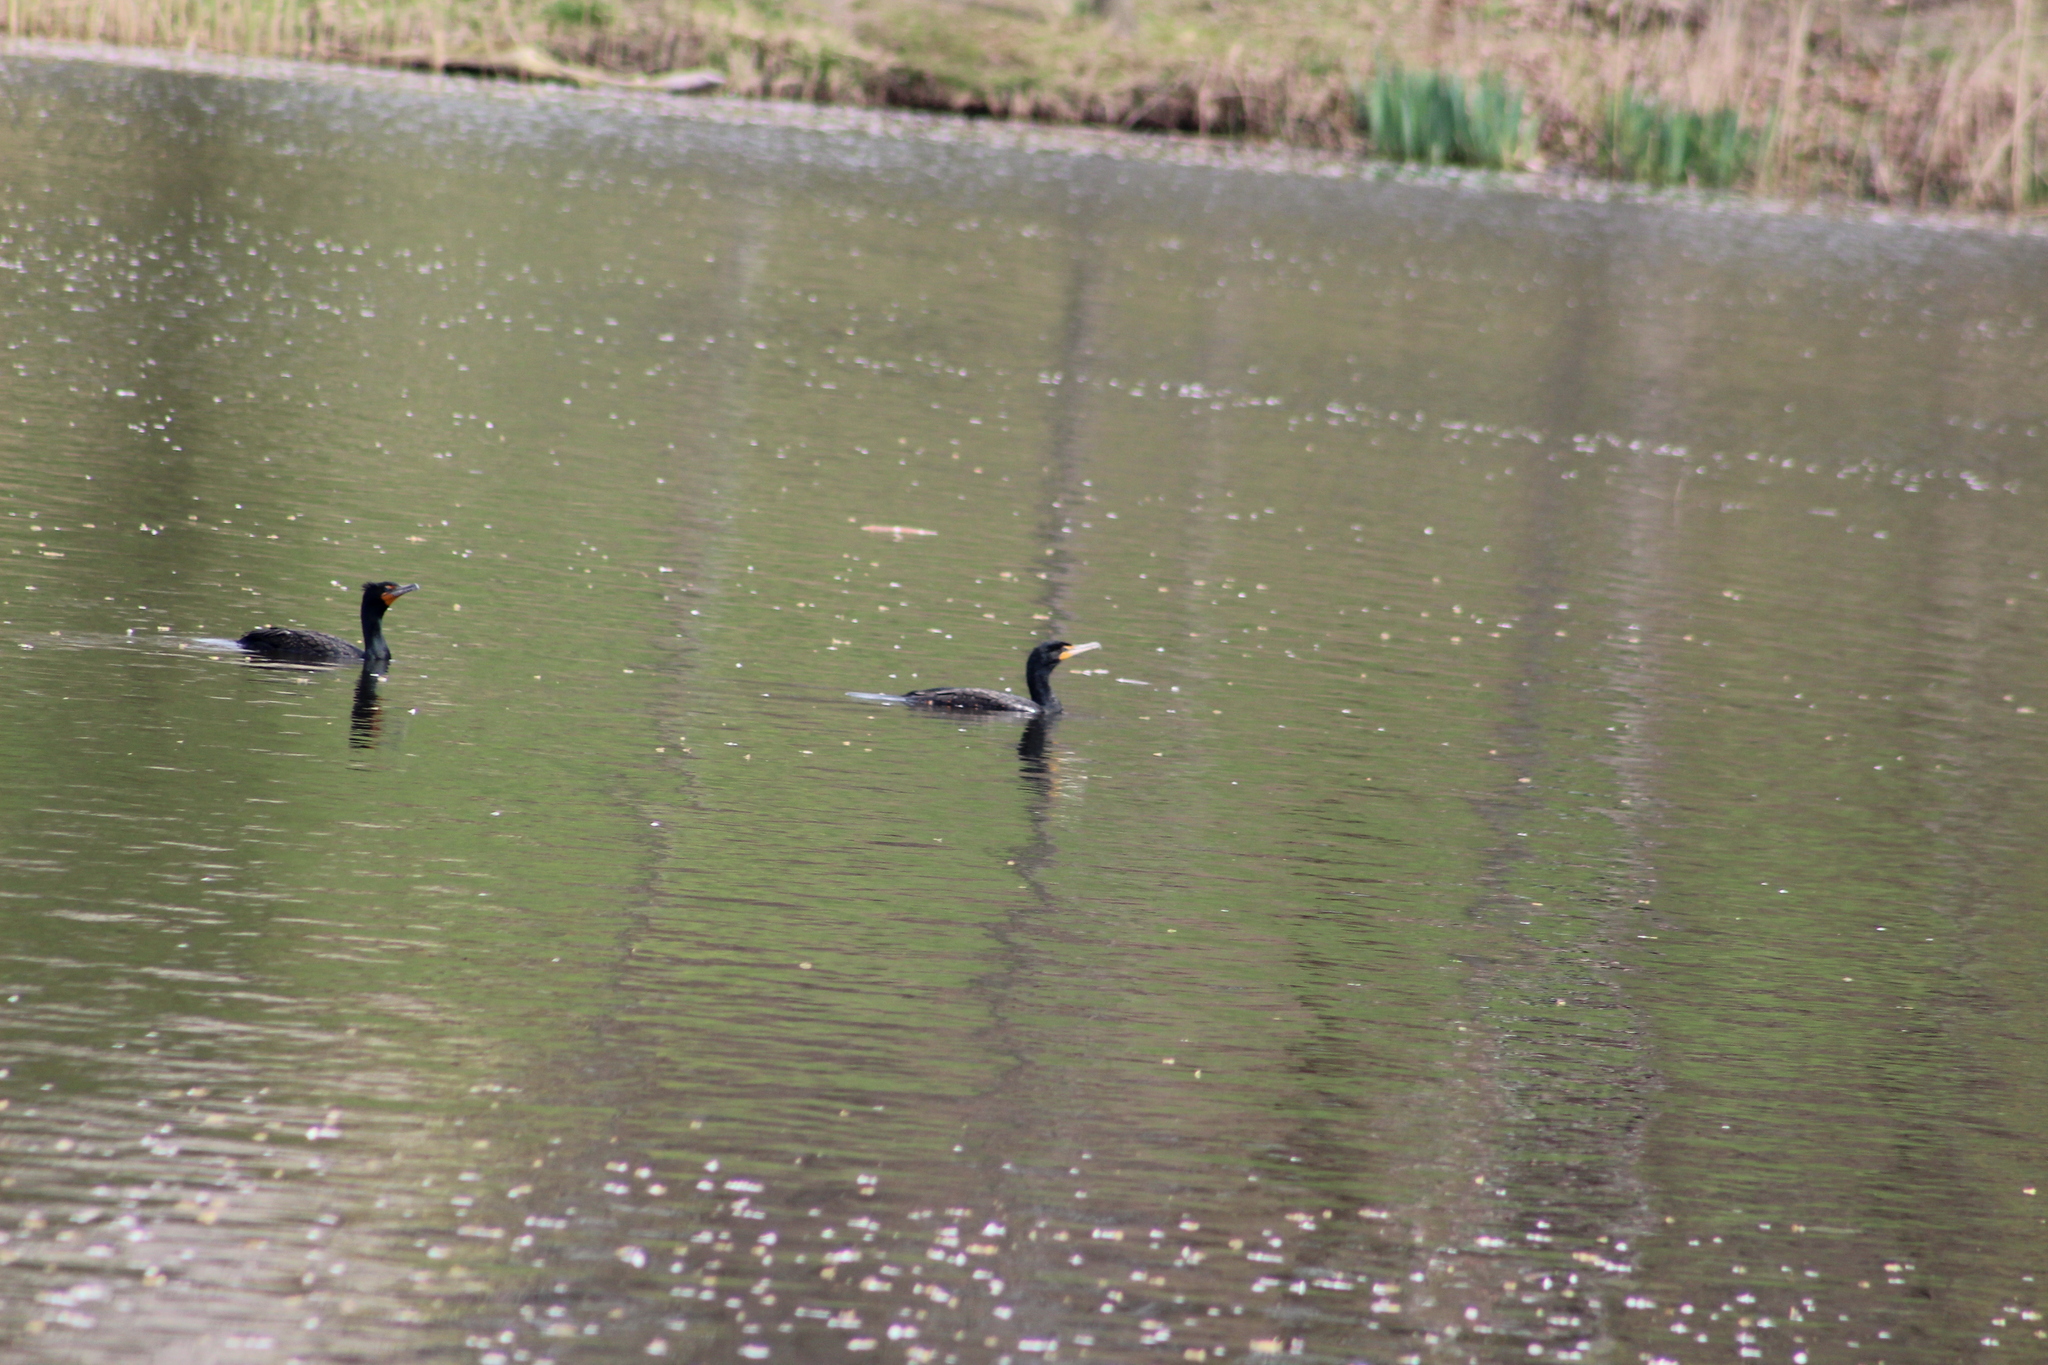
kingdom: Animalia
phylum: Chordata
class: Aves
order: Suliformes
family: Phalacrocoracidae
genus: Phalacrocorax
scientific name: Phalacrocorax auritus
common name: Double-crested cormorant
